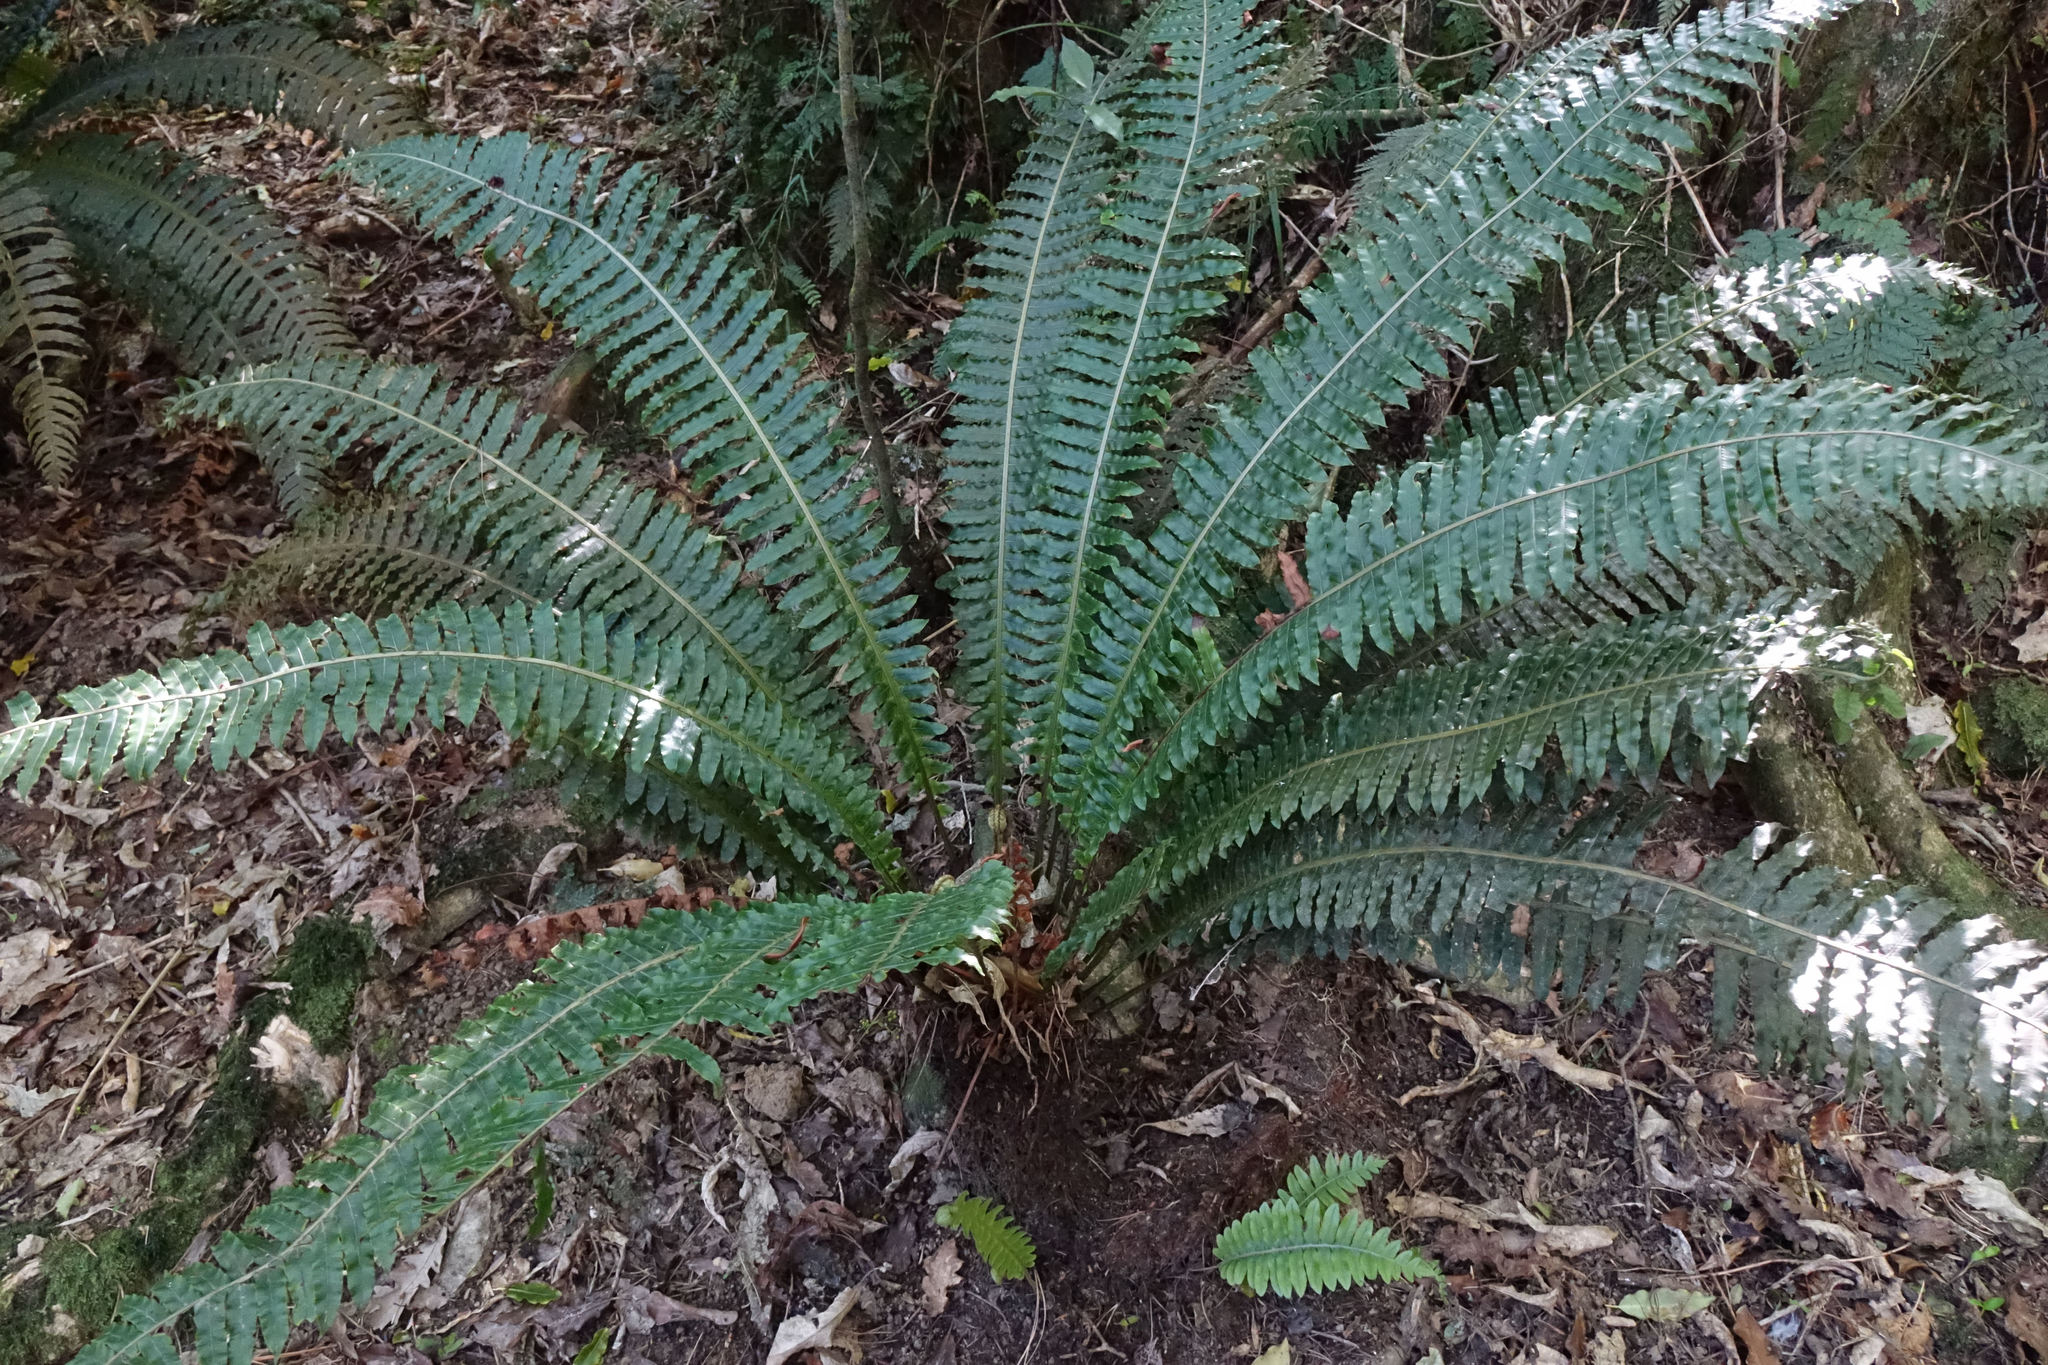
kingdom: Plantae
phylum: Tracheophyta
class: Polypodiopsida
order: Polypodiales
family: Blechnaceae
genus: Lomaria
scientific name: Lomaria discolor
